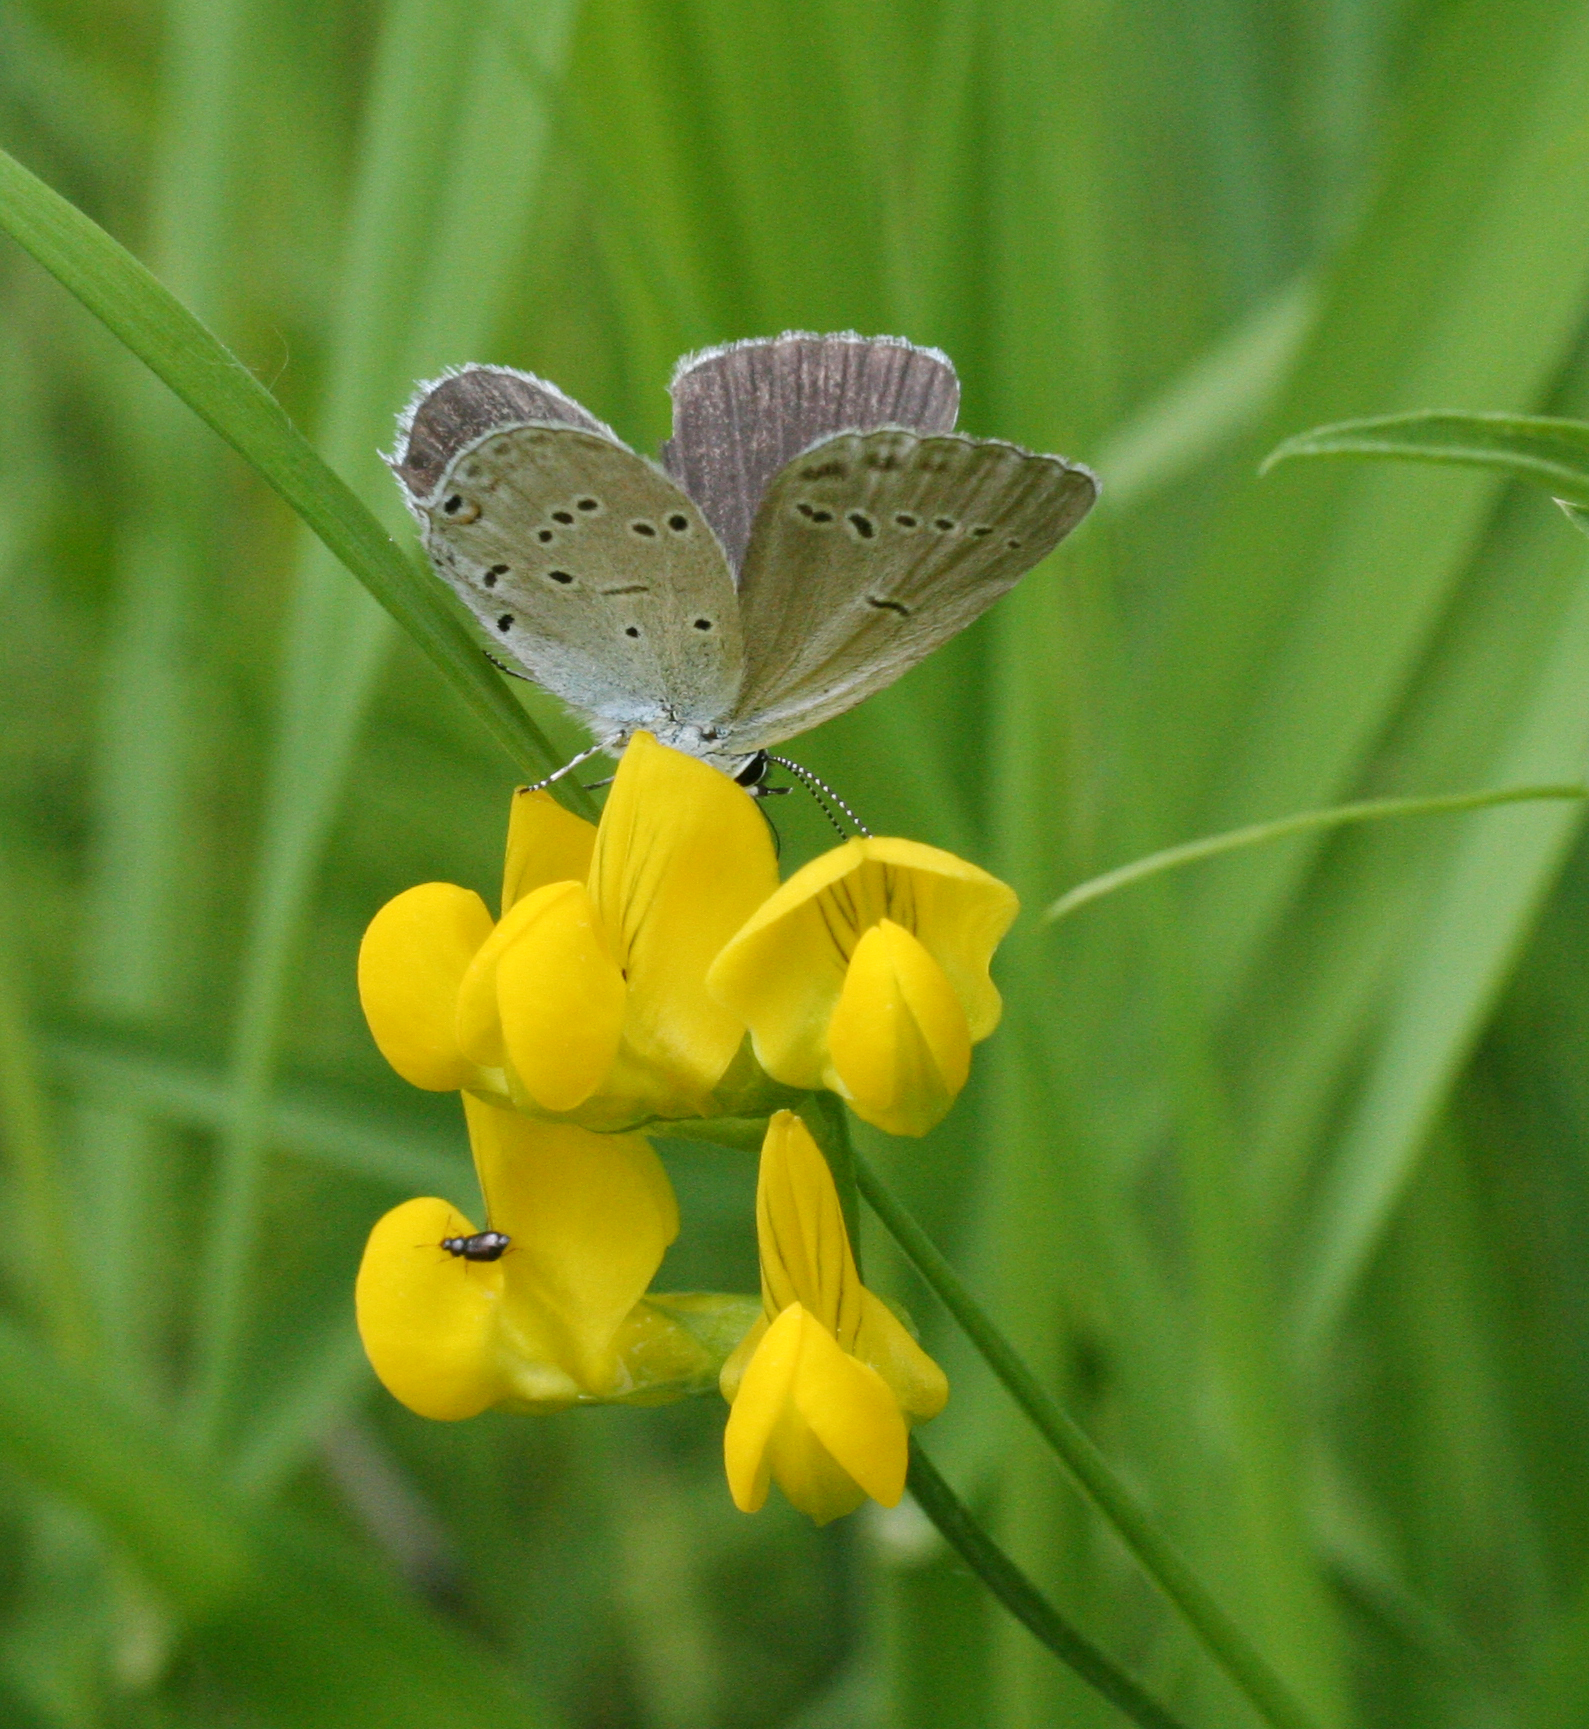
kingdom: Animalia
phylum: Arthropoda
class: Insecta
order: Lepidoptera
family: Lycaenidae
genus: Elkalyce
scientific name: Elkalyce alcetas
